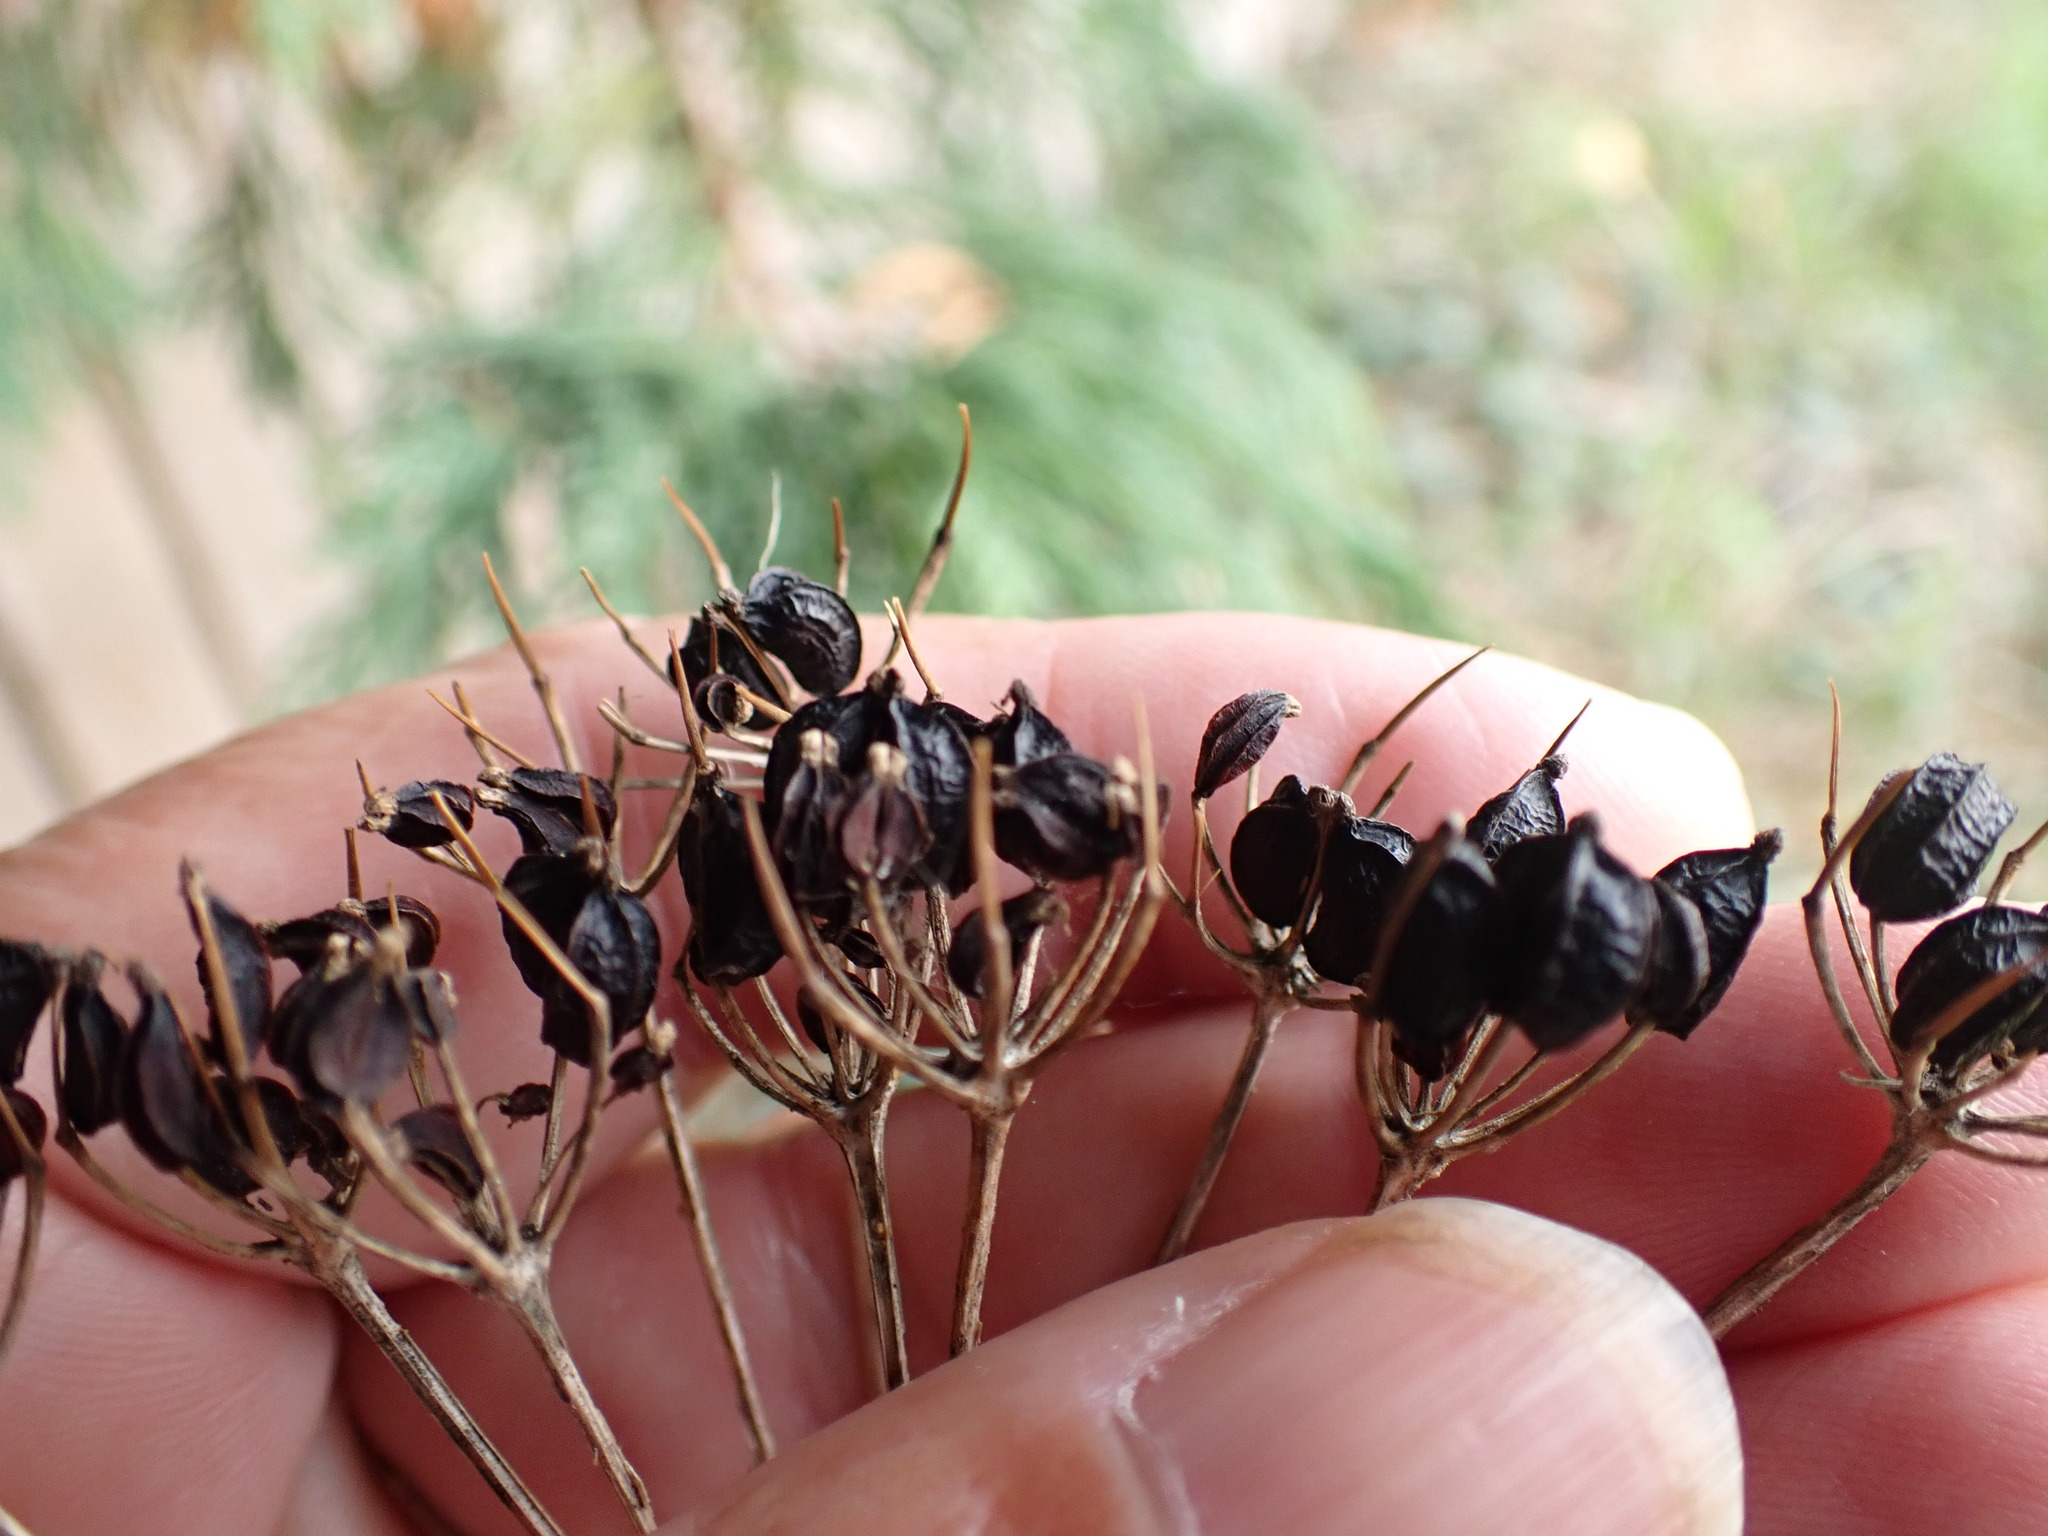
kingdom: Plantae
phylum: Tracheophyta
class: Magnoliopsida
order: Apiales
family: Apiaceae
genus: Smyrnium
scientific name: Smyrnium olusatrum
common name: Alexanders
